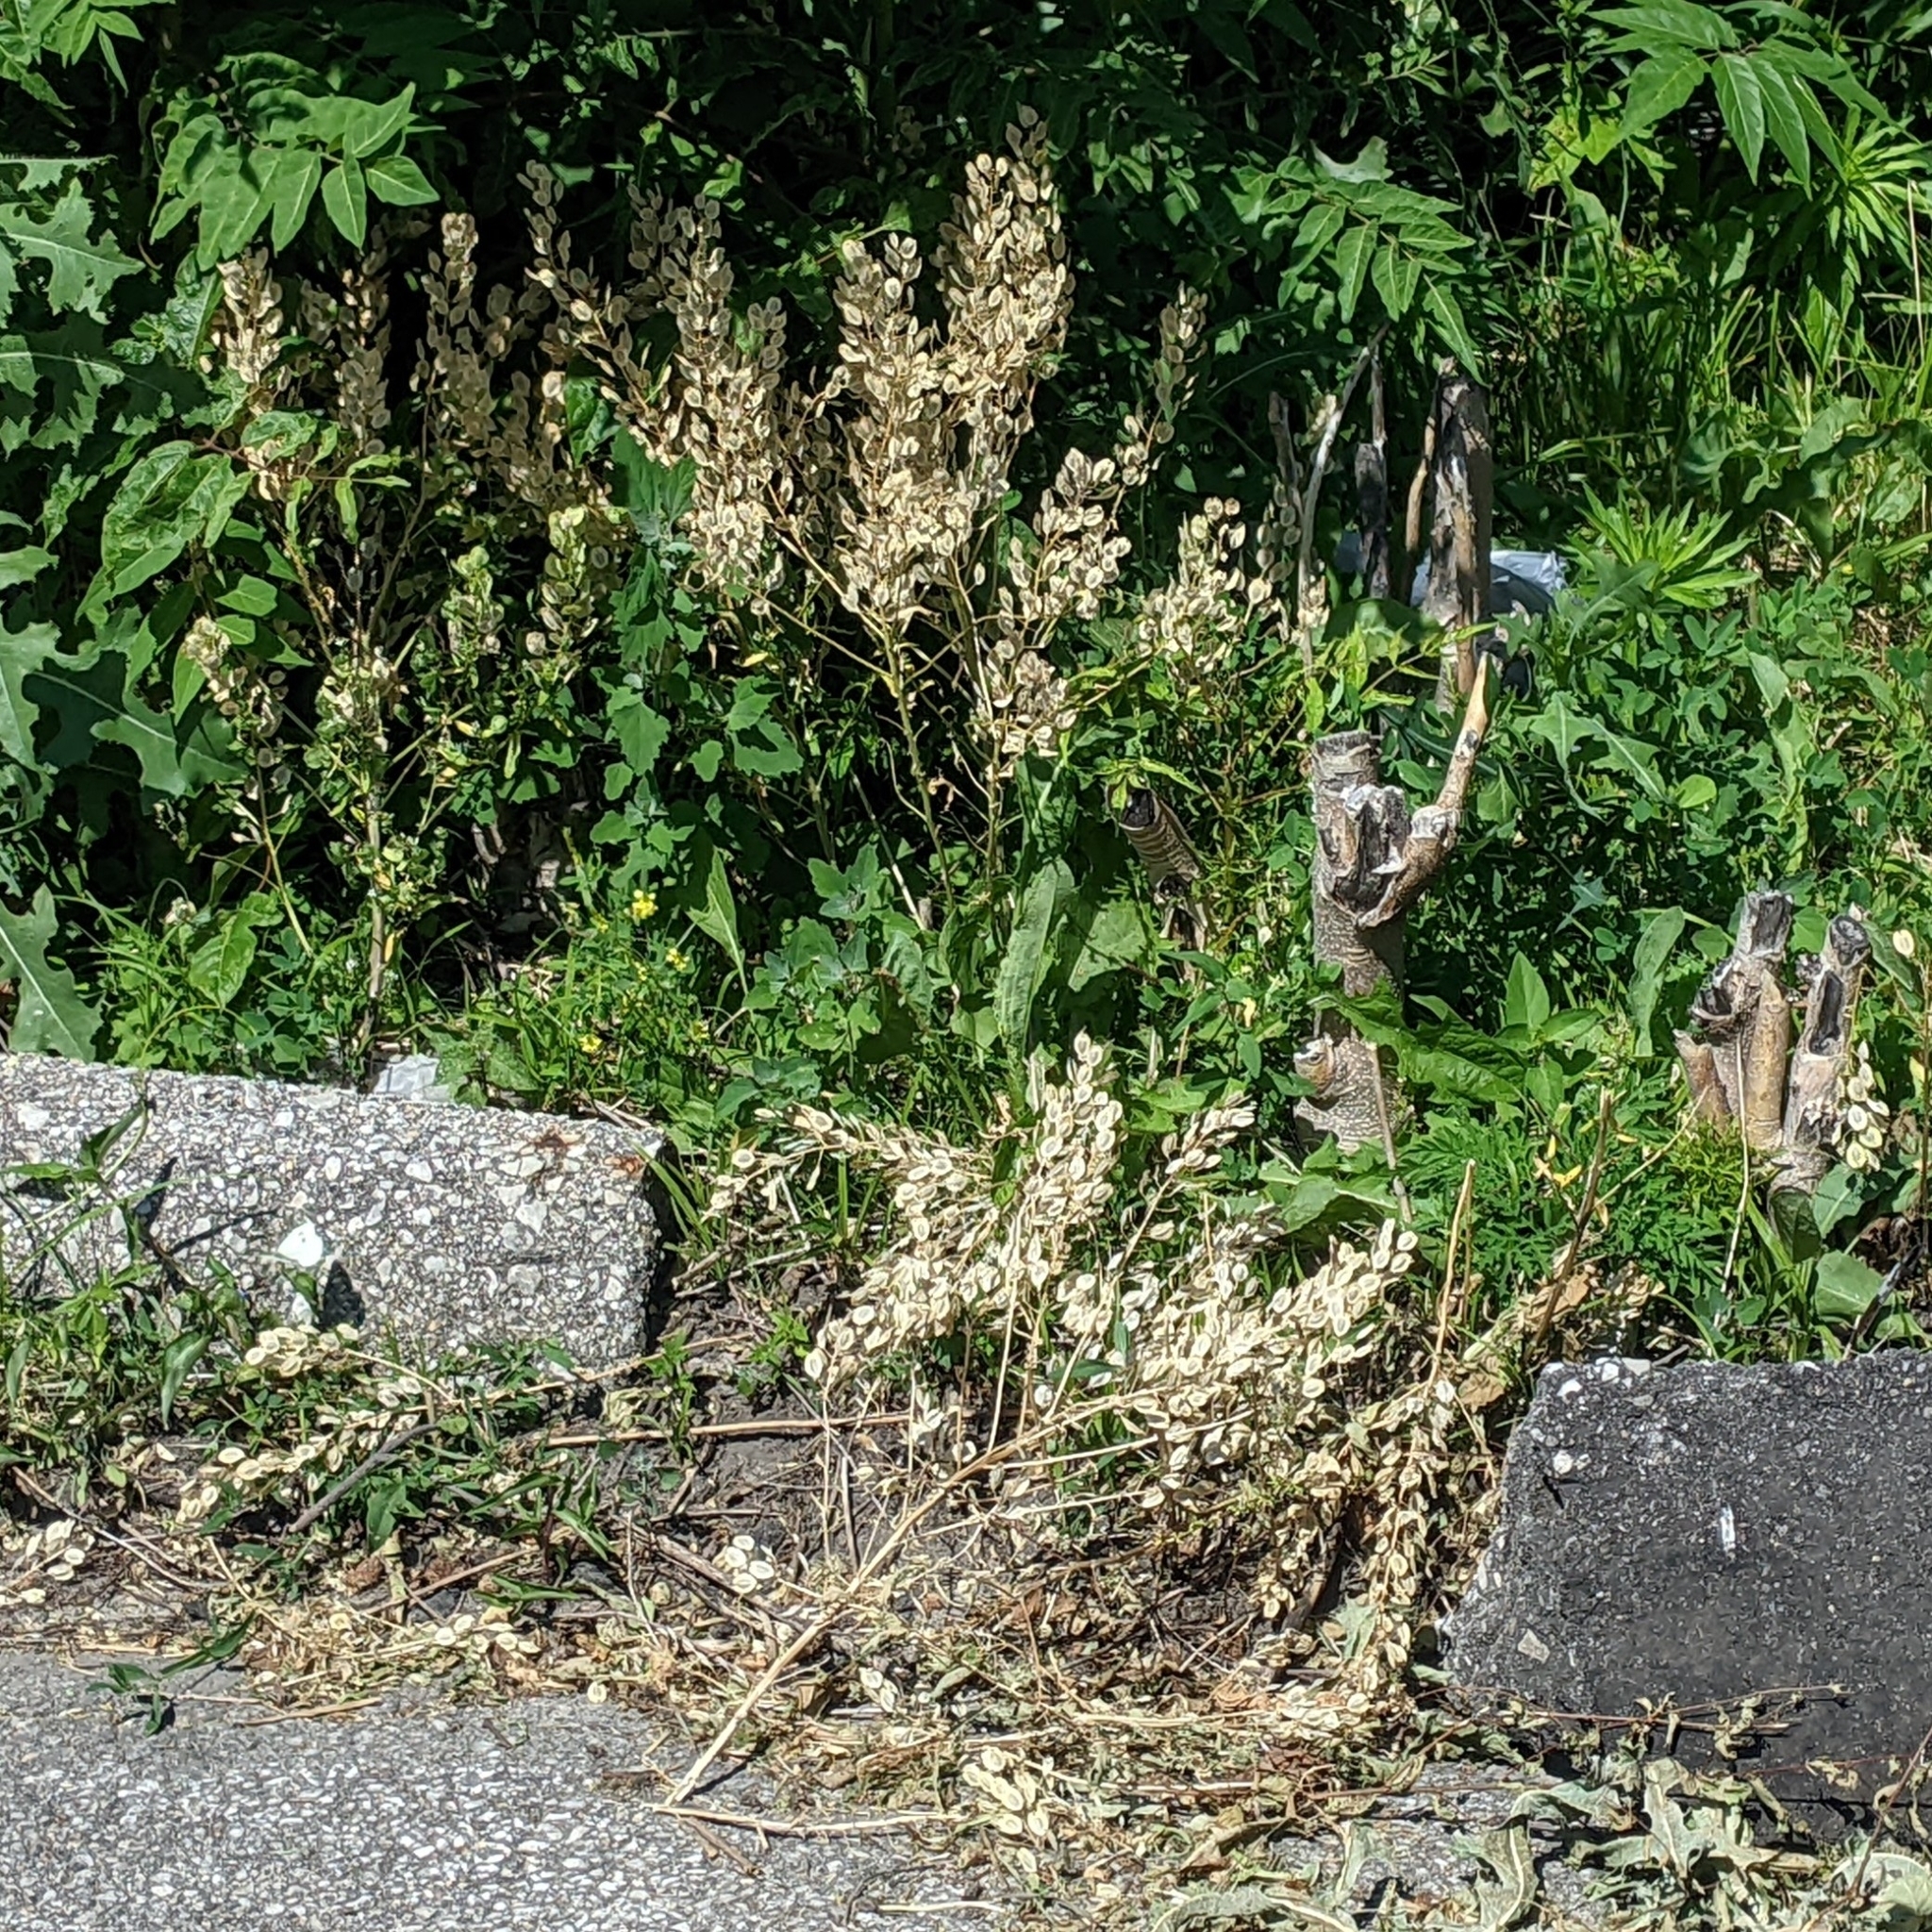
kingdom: Plantae
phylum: Tracheophyta
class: Magnoliopsida
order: Brassicales
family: Brassicaceae
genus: Thlaspi
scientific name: Thlaspi arvense
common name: Field pennycress
